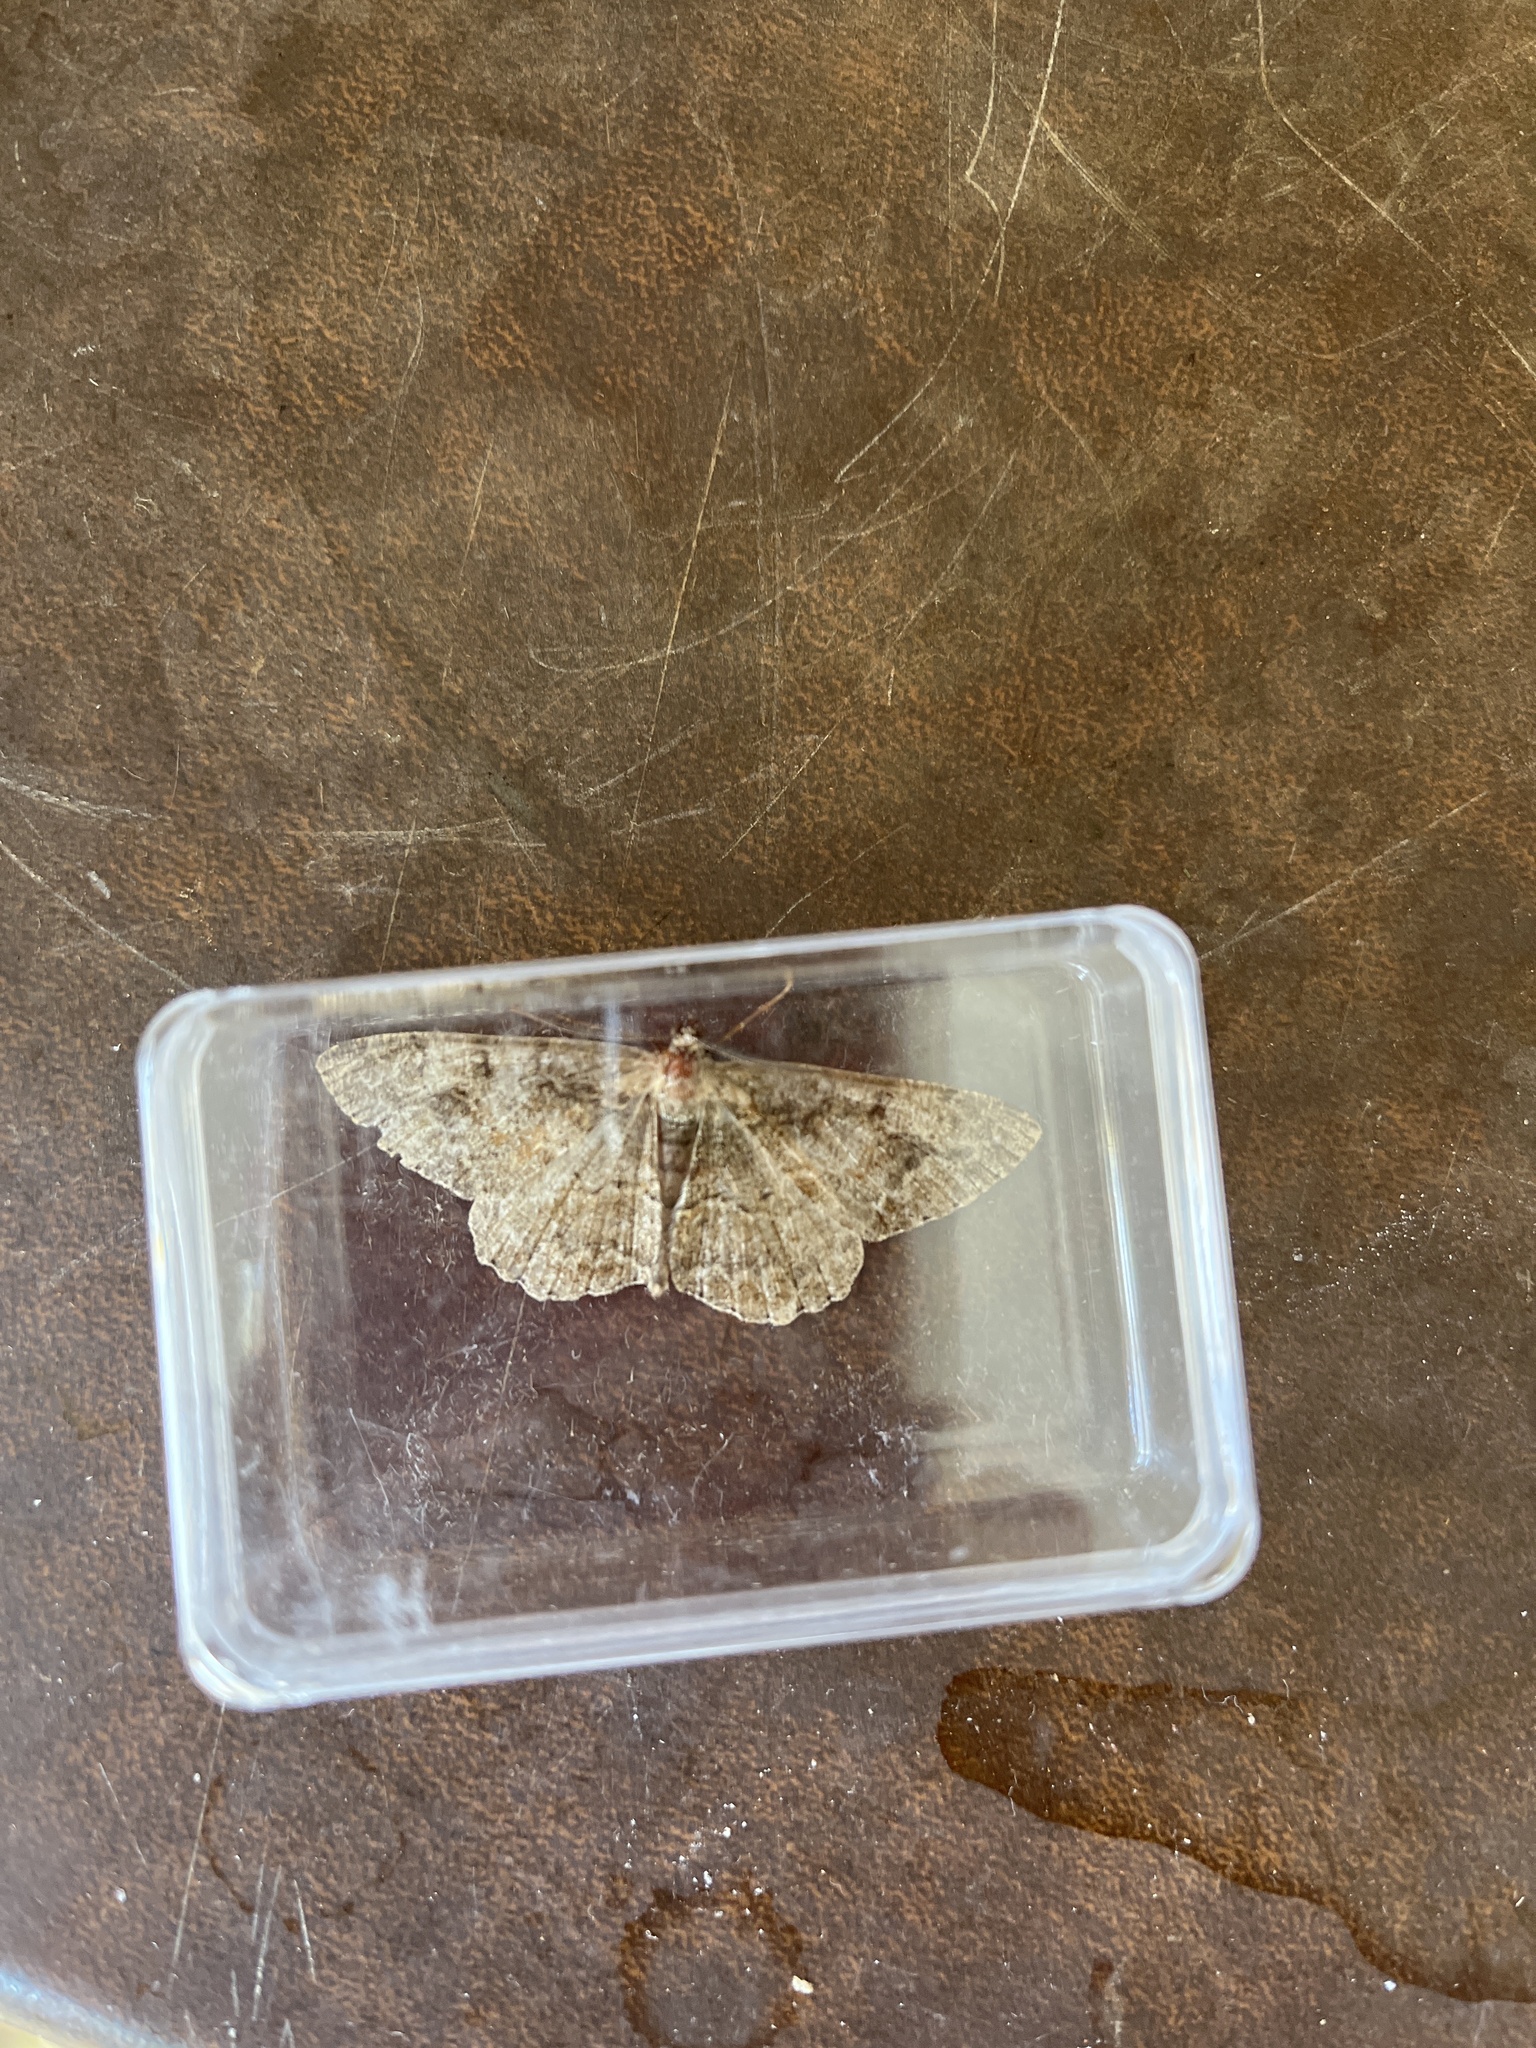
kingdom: Animalia
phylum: Arthropoda
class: Insecta
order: Lepidoptera
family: Geometridae
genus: Alcis
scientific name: Alcis repandata
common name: Mottled beauty
